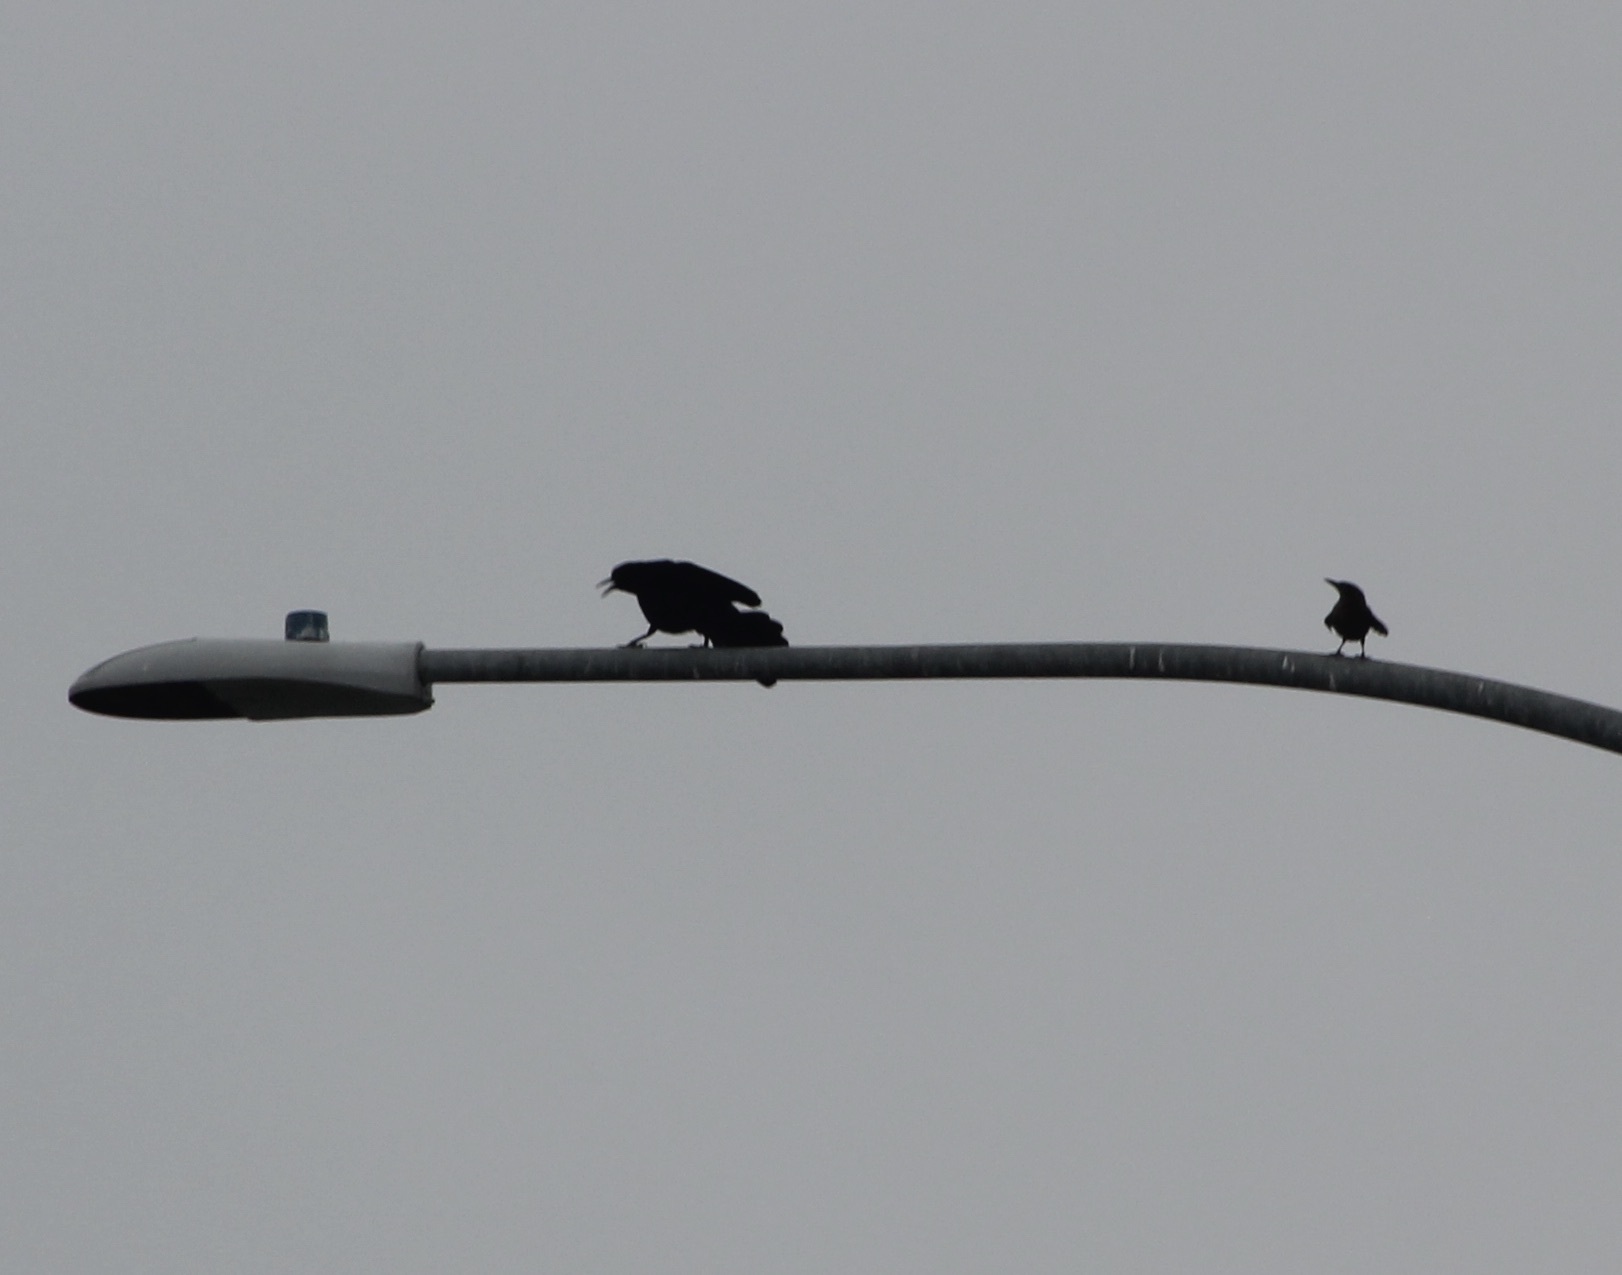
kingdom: Animalia
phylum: Chordata
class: Aves
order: Passeriformes
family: Icteridae
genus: Quiscalus
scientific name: Quiscalus mexicanus
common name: Great-tailed grackle
